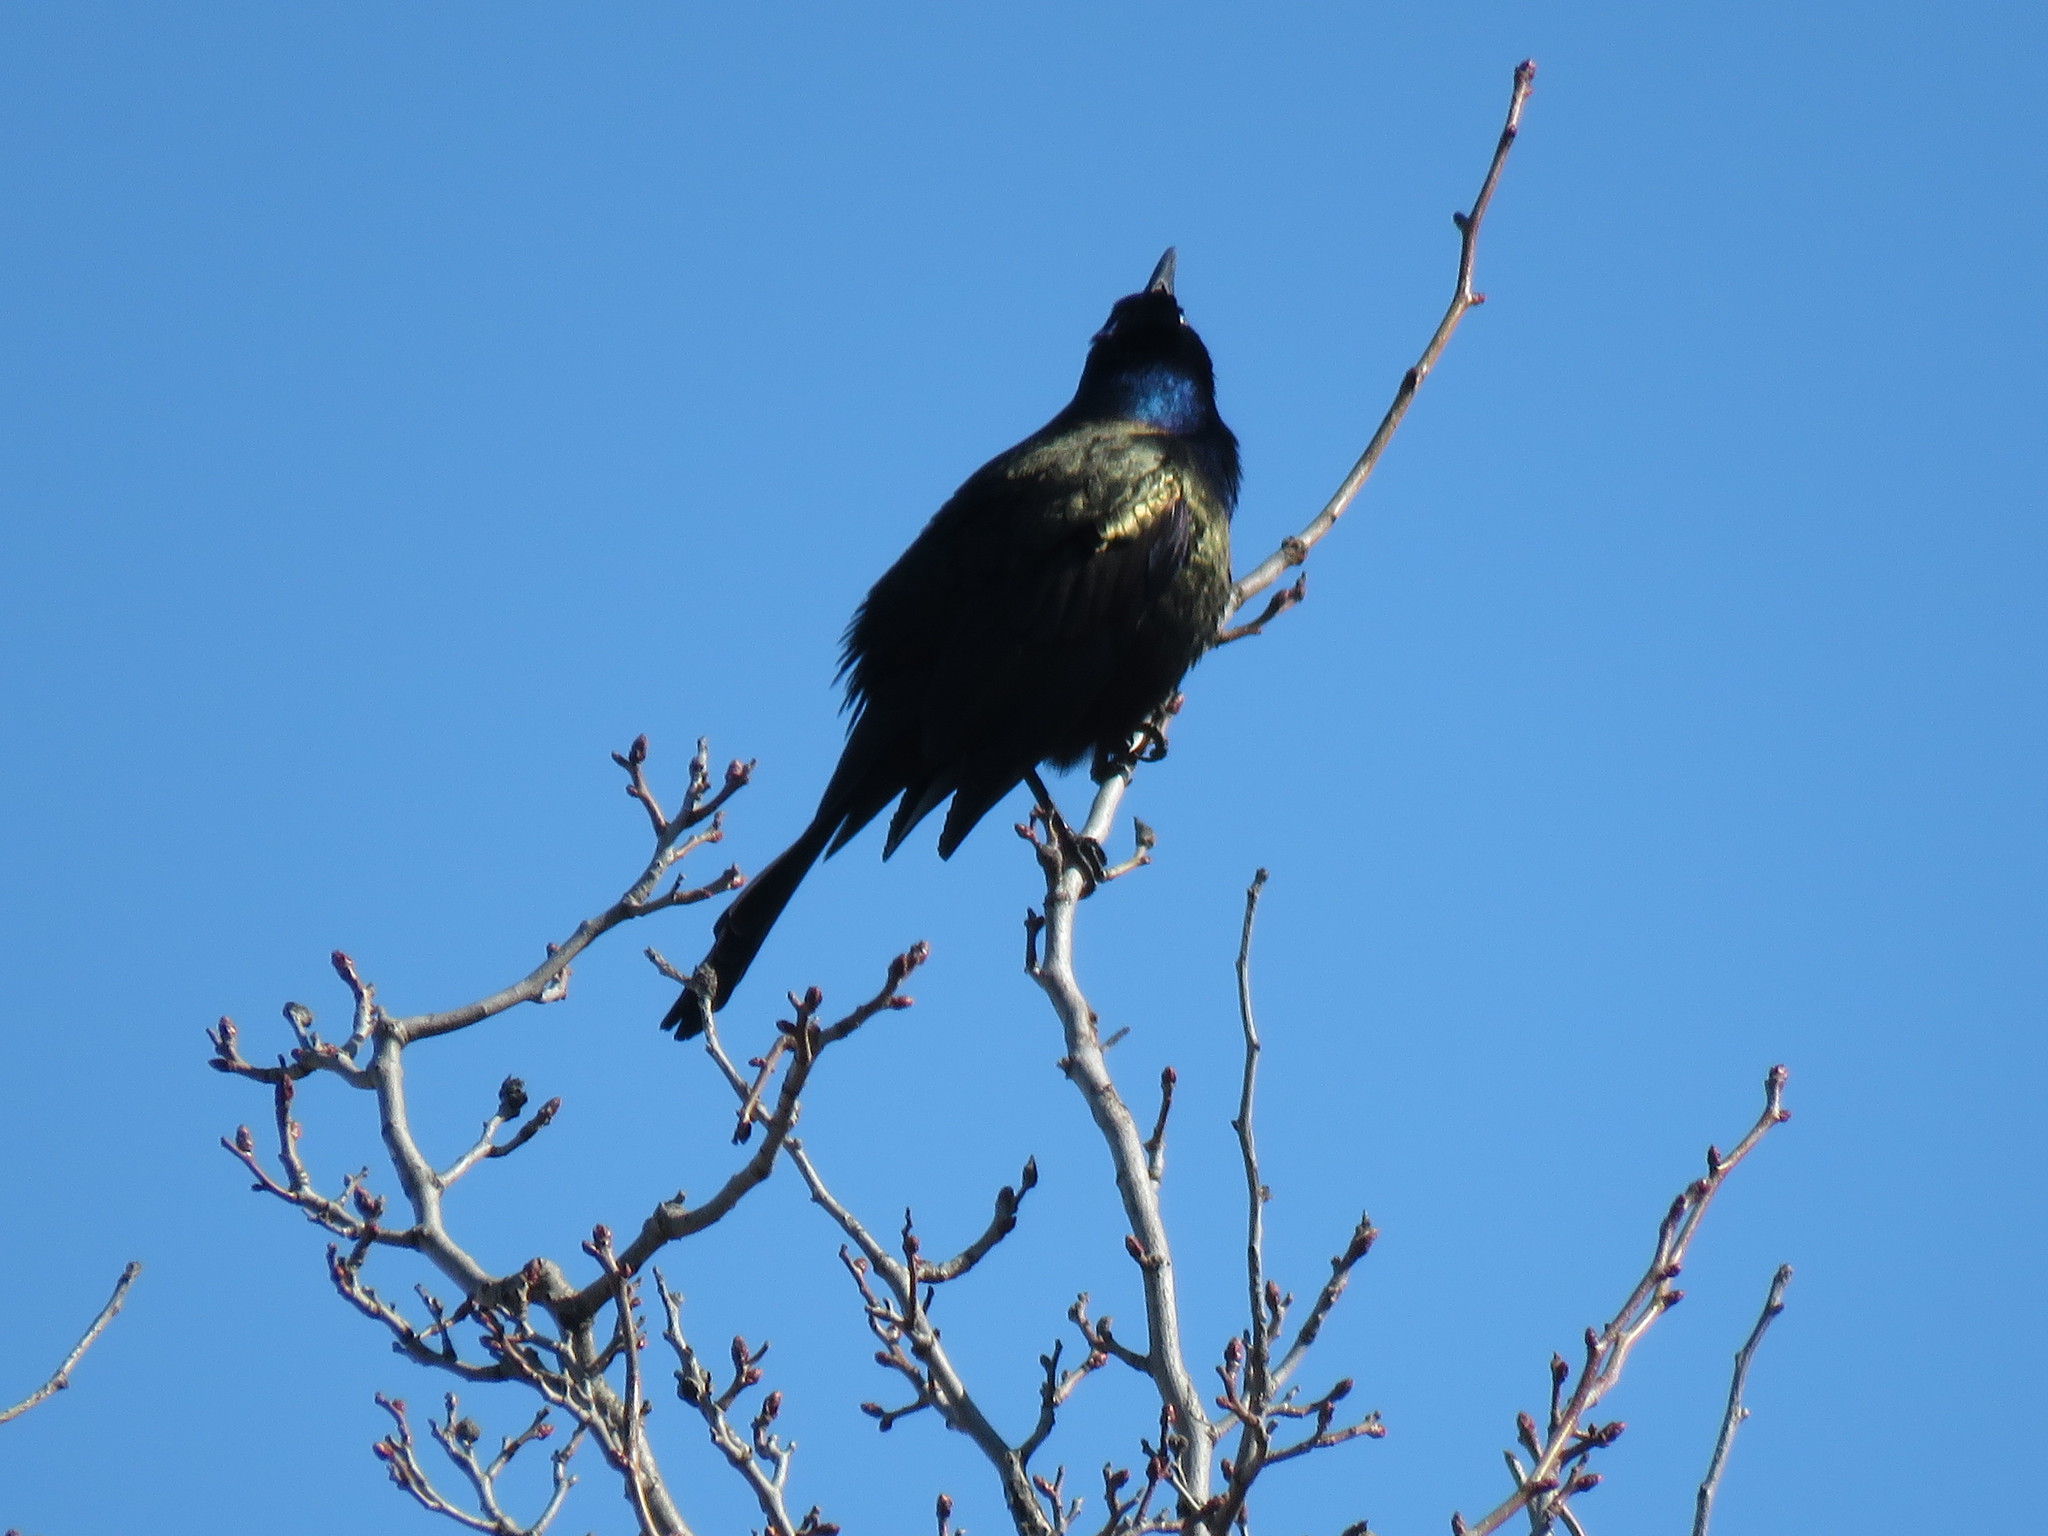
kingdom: Animalia
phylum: Chordata
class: Aves
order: Passeriformes
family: Icteridae
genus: Quiscalus
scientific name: Quiscalus quiscula
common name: Common grackle
